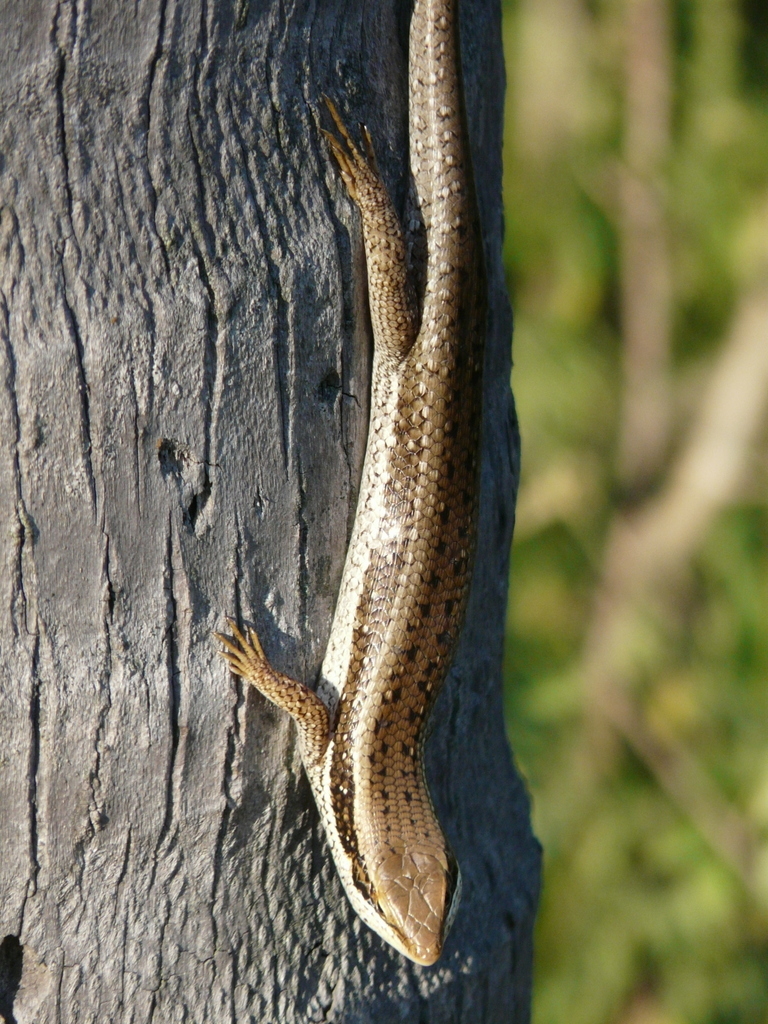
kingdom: Animalia
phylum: Chordata
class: Squamata
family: Scincidae
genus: Trachylepis
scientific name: Trachylepis planifrons
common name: Tree skink
